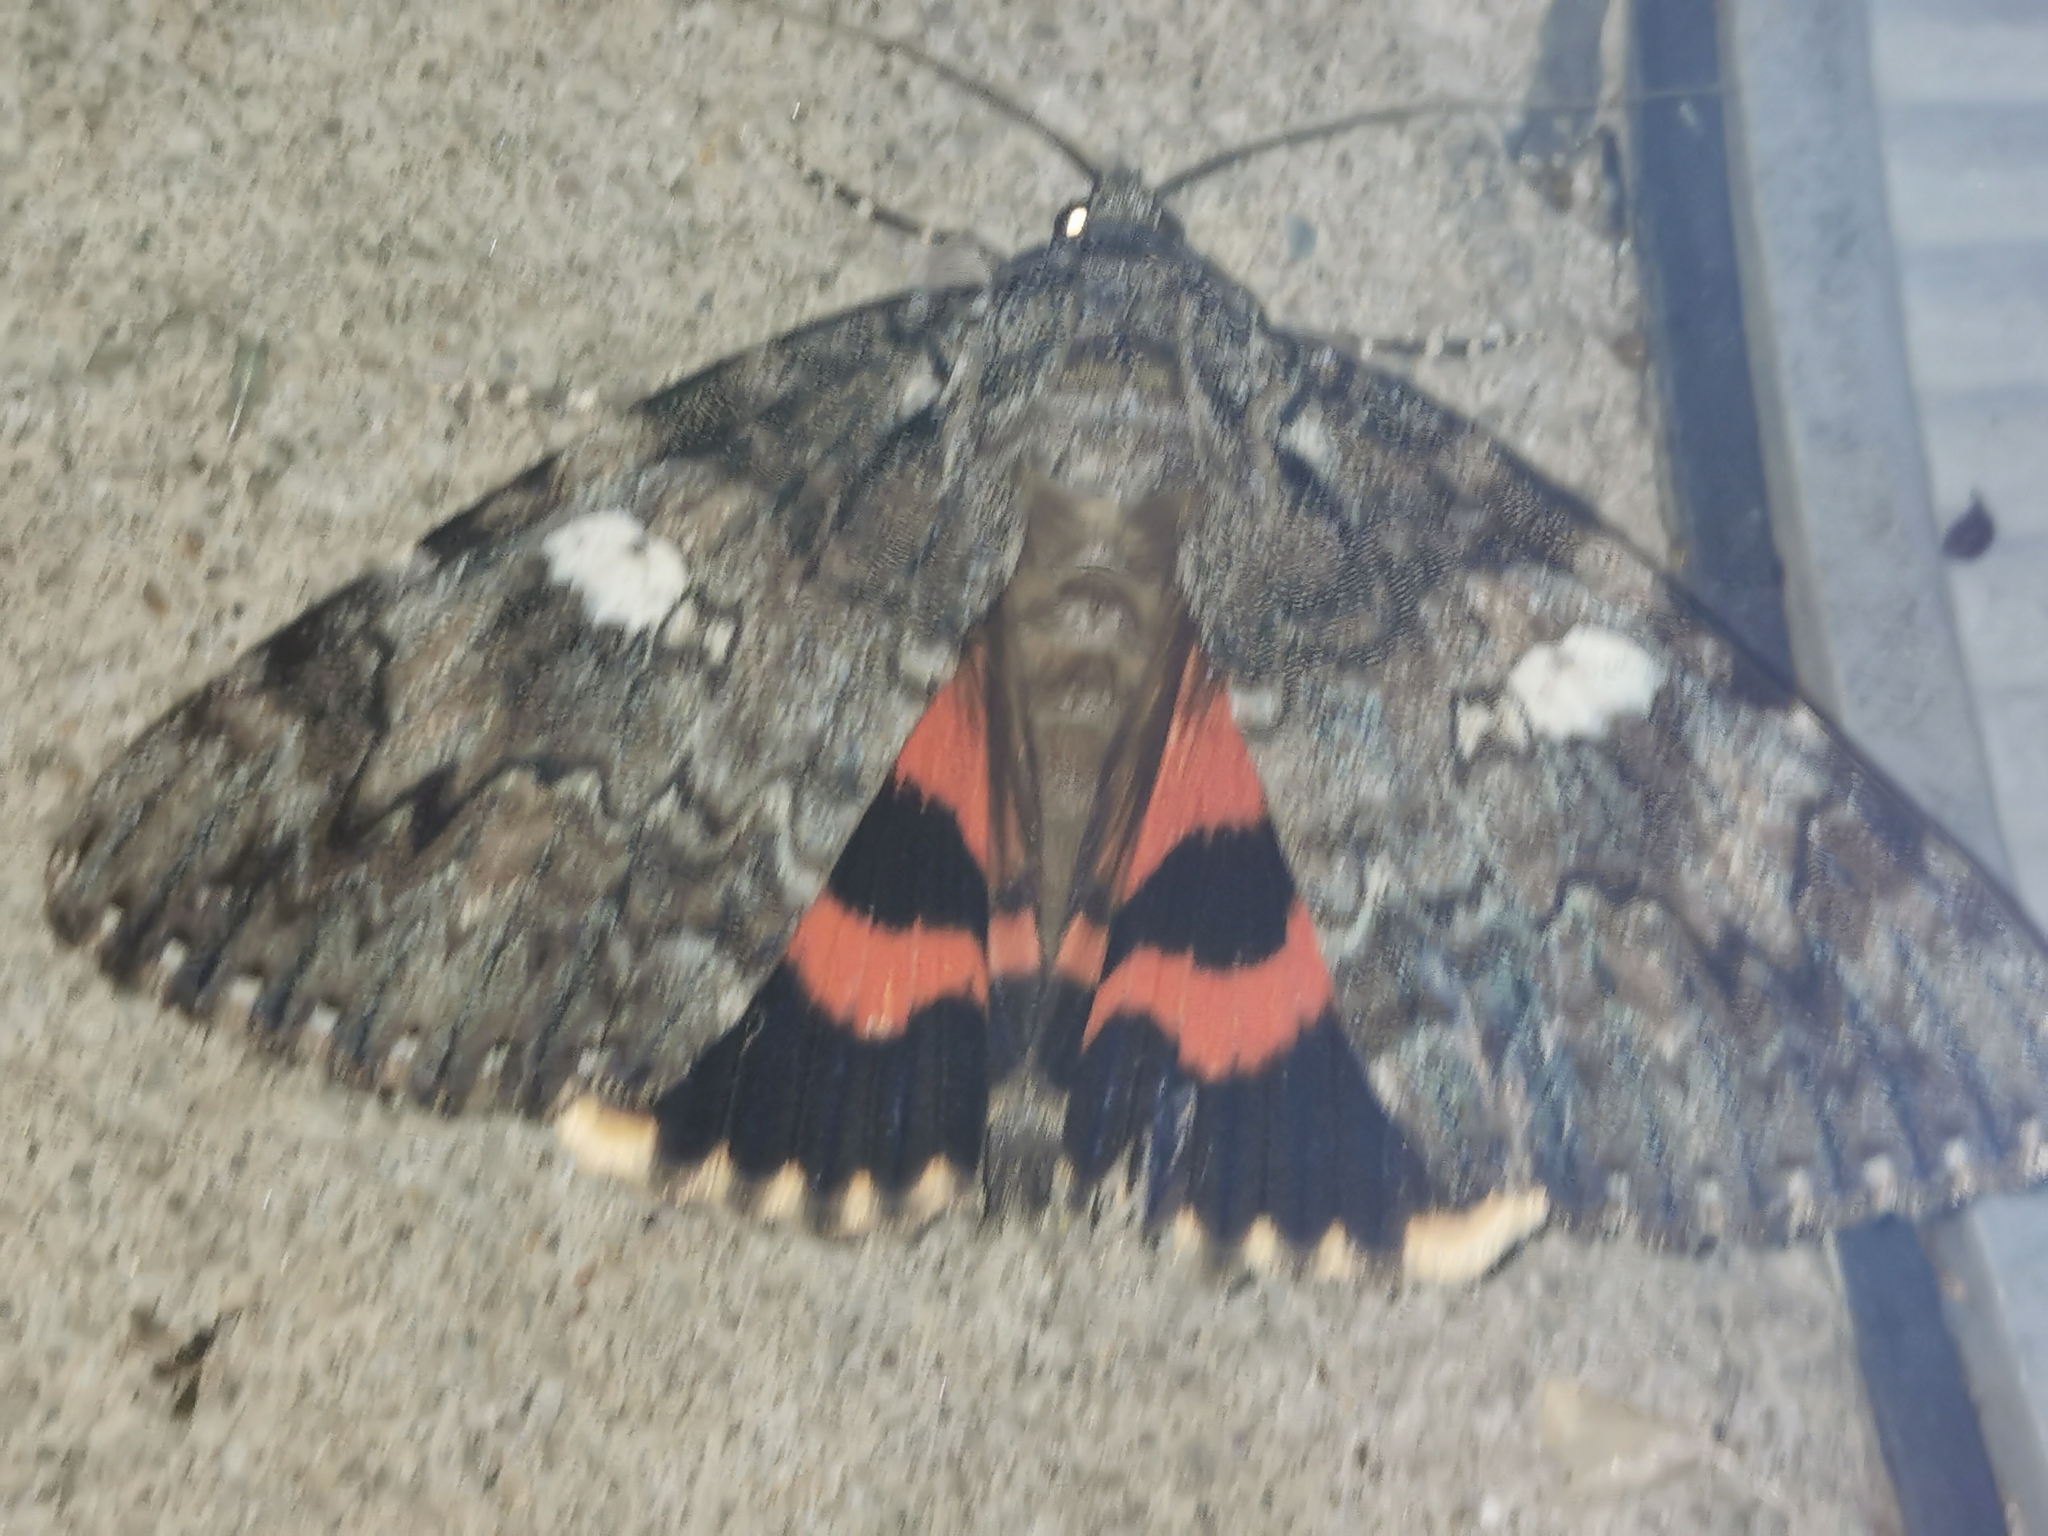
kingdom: Animalia
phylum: Arthropoda
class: Insecta
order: Lepidoptera
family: Erebidae
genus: Catocala
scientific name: Catocala ilia
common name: Ilia underwing
